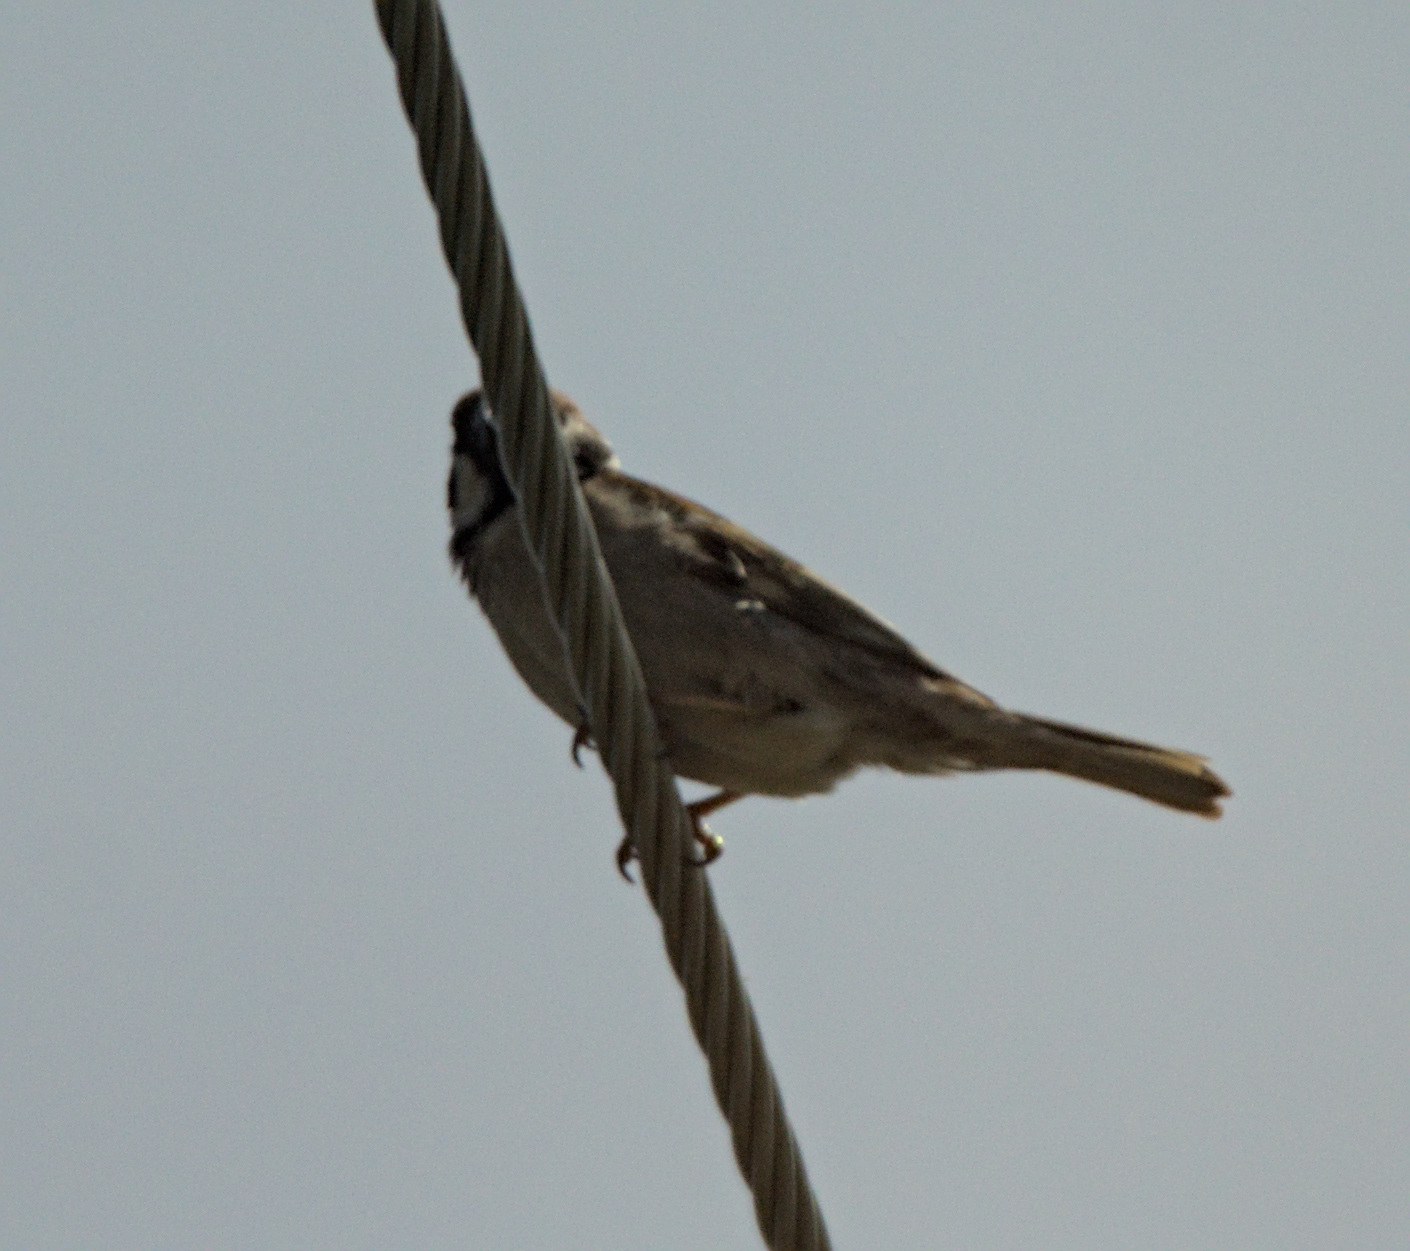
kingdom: Animalia
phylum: Chordata
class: Aves
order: Passeriformes
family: Passeridae
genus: Passer
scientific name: Passer montanus
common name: Eurasian tree sparrow
